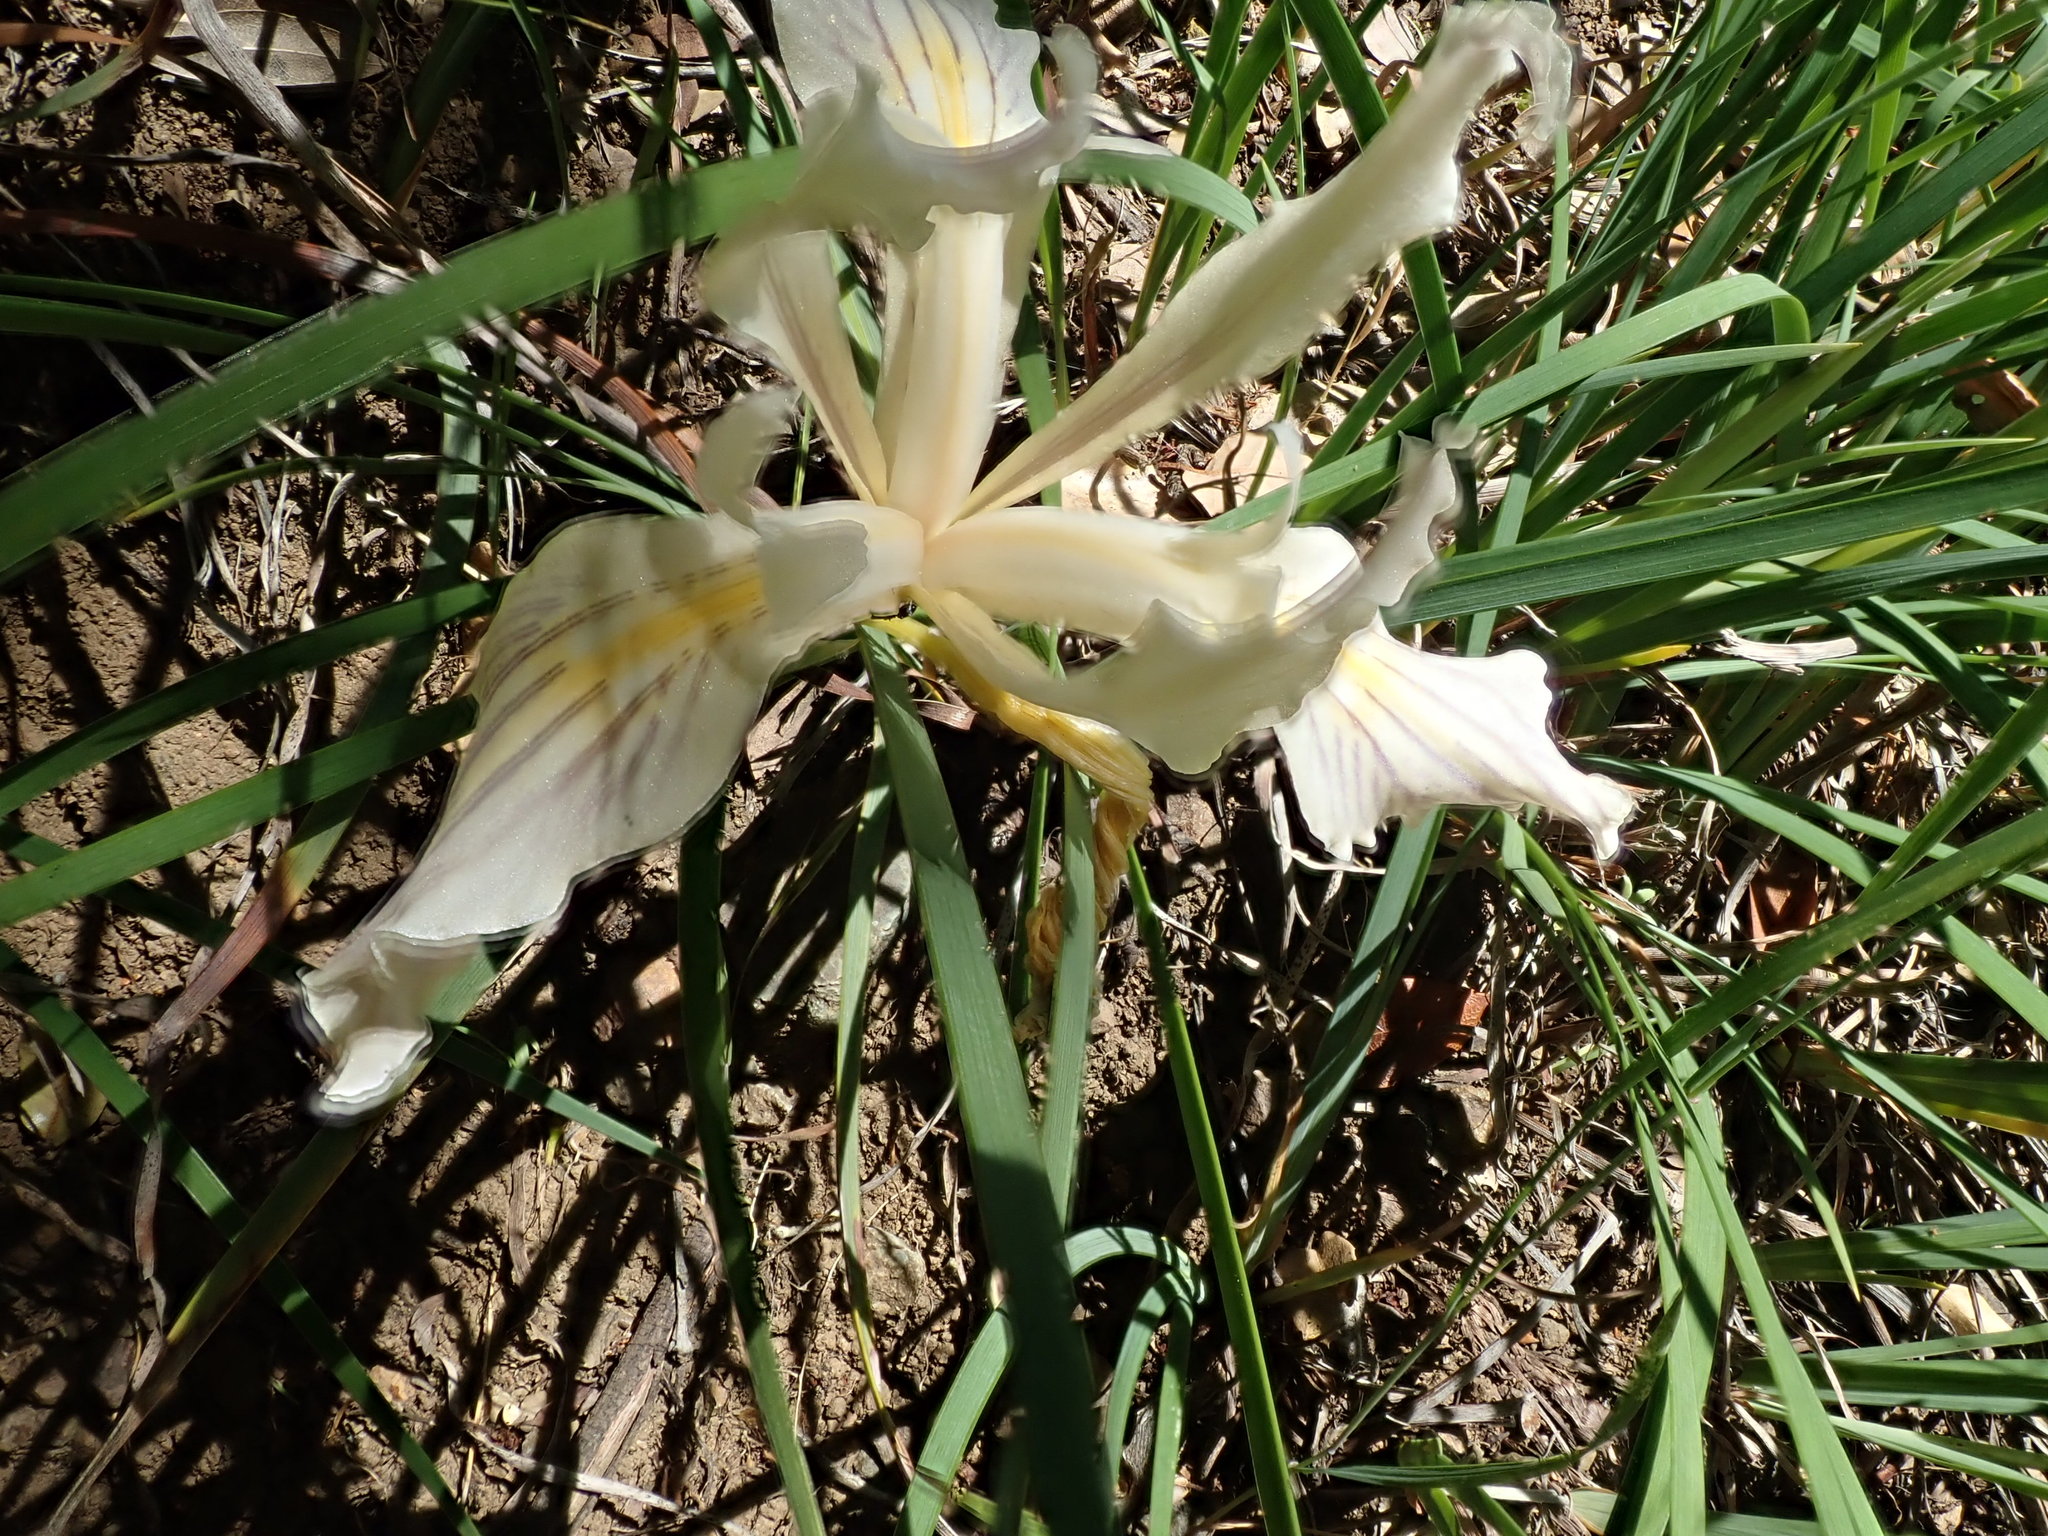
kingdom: Plantae
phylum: Tracheophyta
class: Liliopsida
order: Asparagales
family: Iridaceae
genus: Iris
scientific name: Iris fernaldii
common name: Fernald's iris
